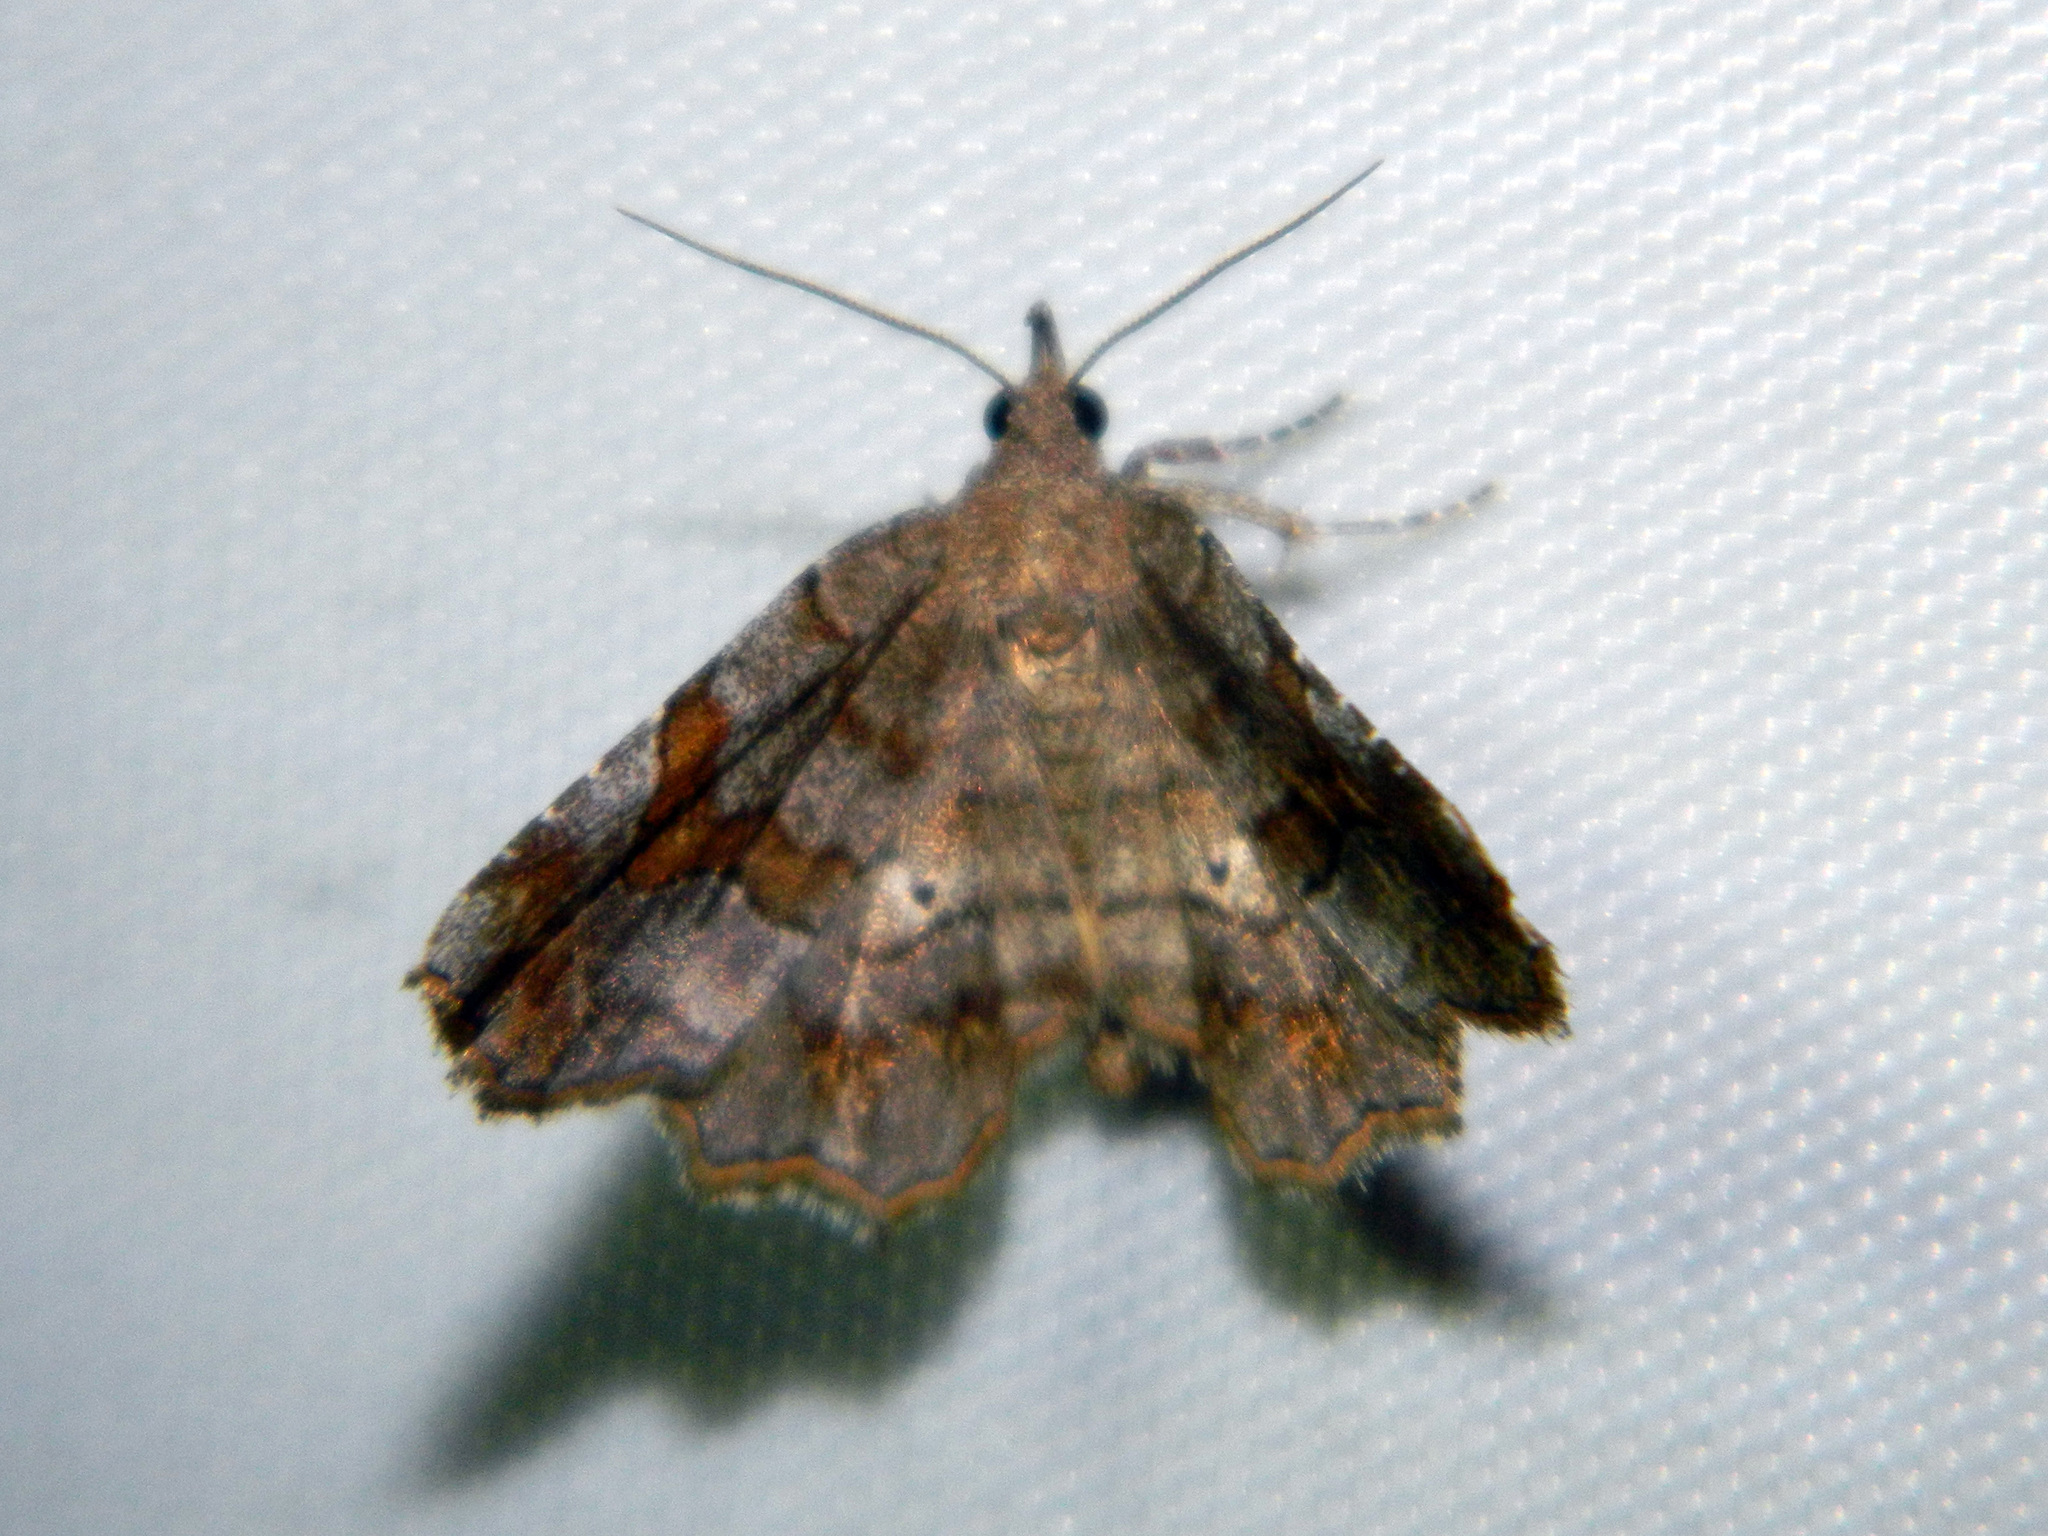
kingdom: Animalia
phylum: Arthropoda
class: Insecta
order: Lepidoptera
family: Erebidae
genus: Pangrapta
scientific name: Pangrapta decoralis
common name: Decorated owlet
